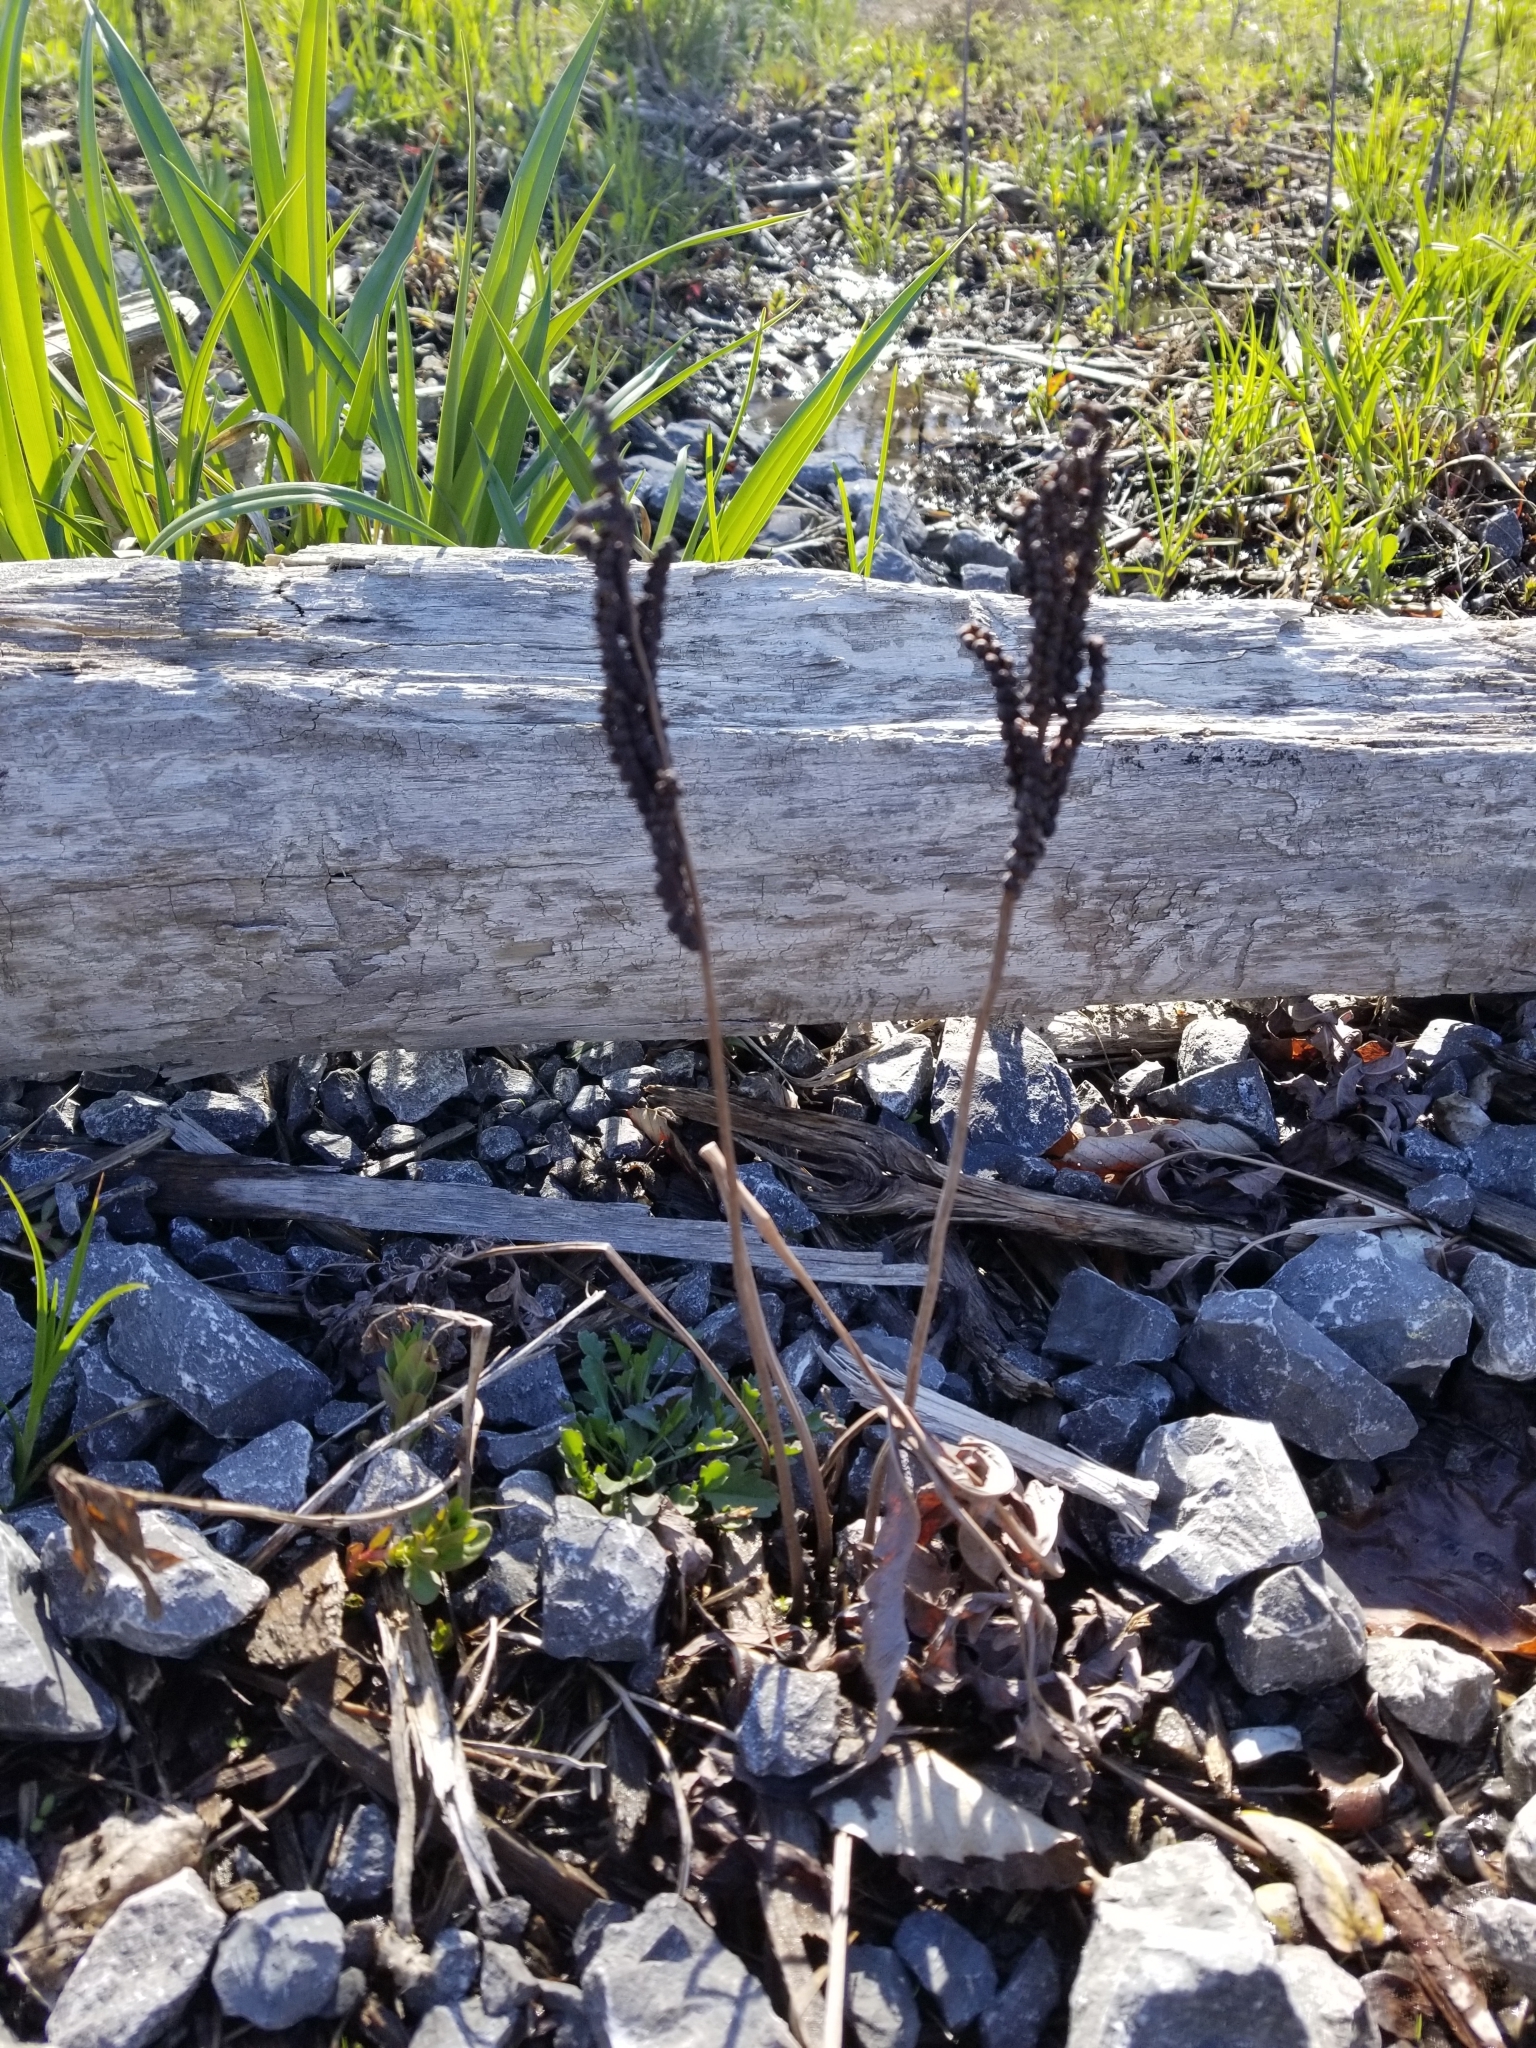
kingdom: Plantae
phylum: Tracheophyta
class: Polypodiopsida
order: Polypodiales
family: Onocleaceae
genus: Onoclea
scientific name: Onoclea sensibilis
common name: Sensitive fern
